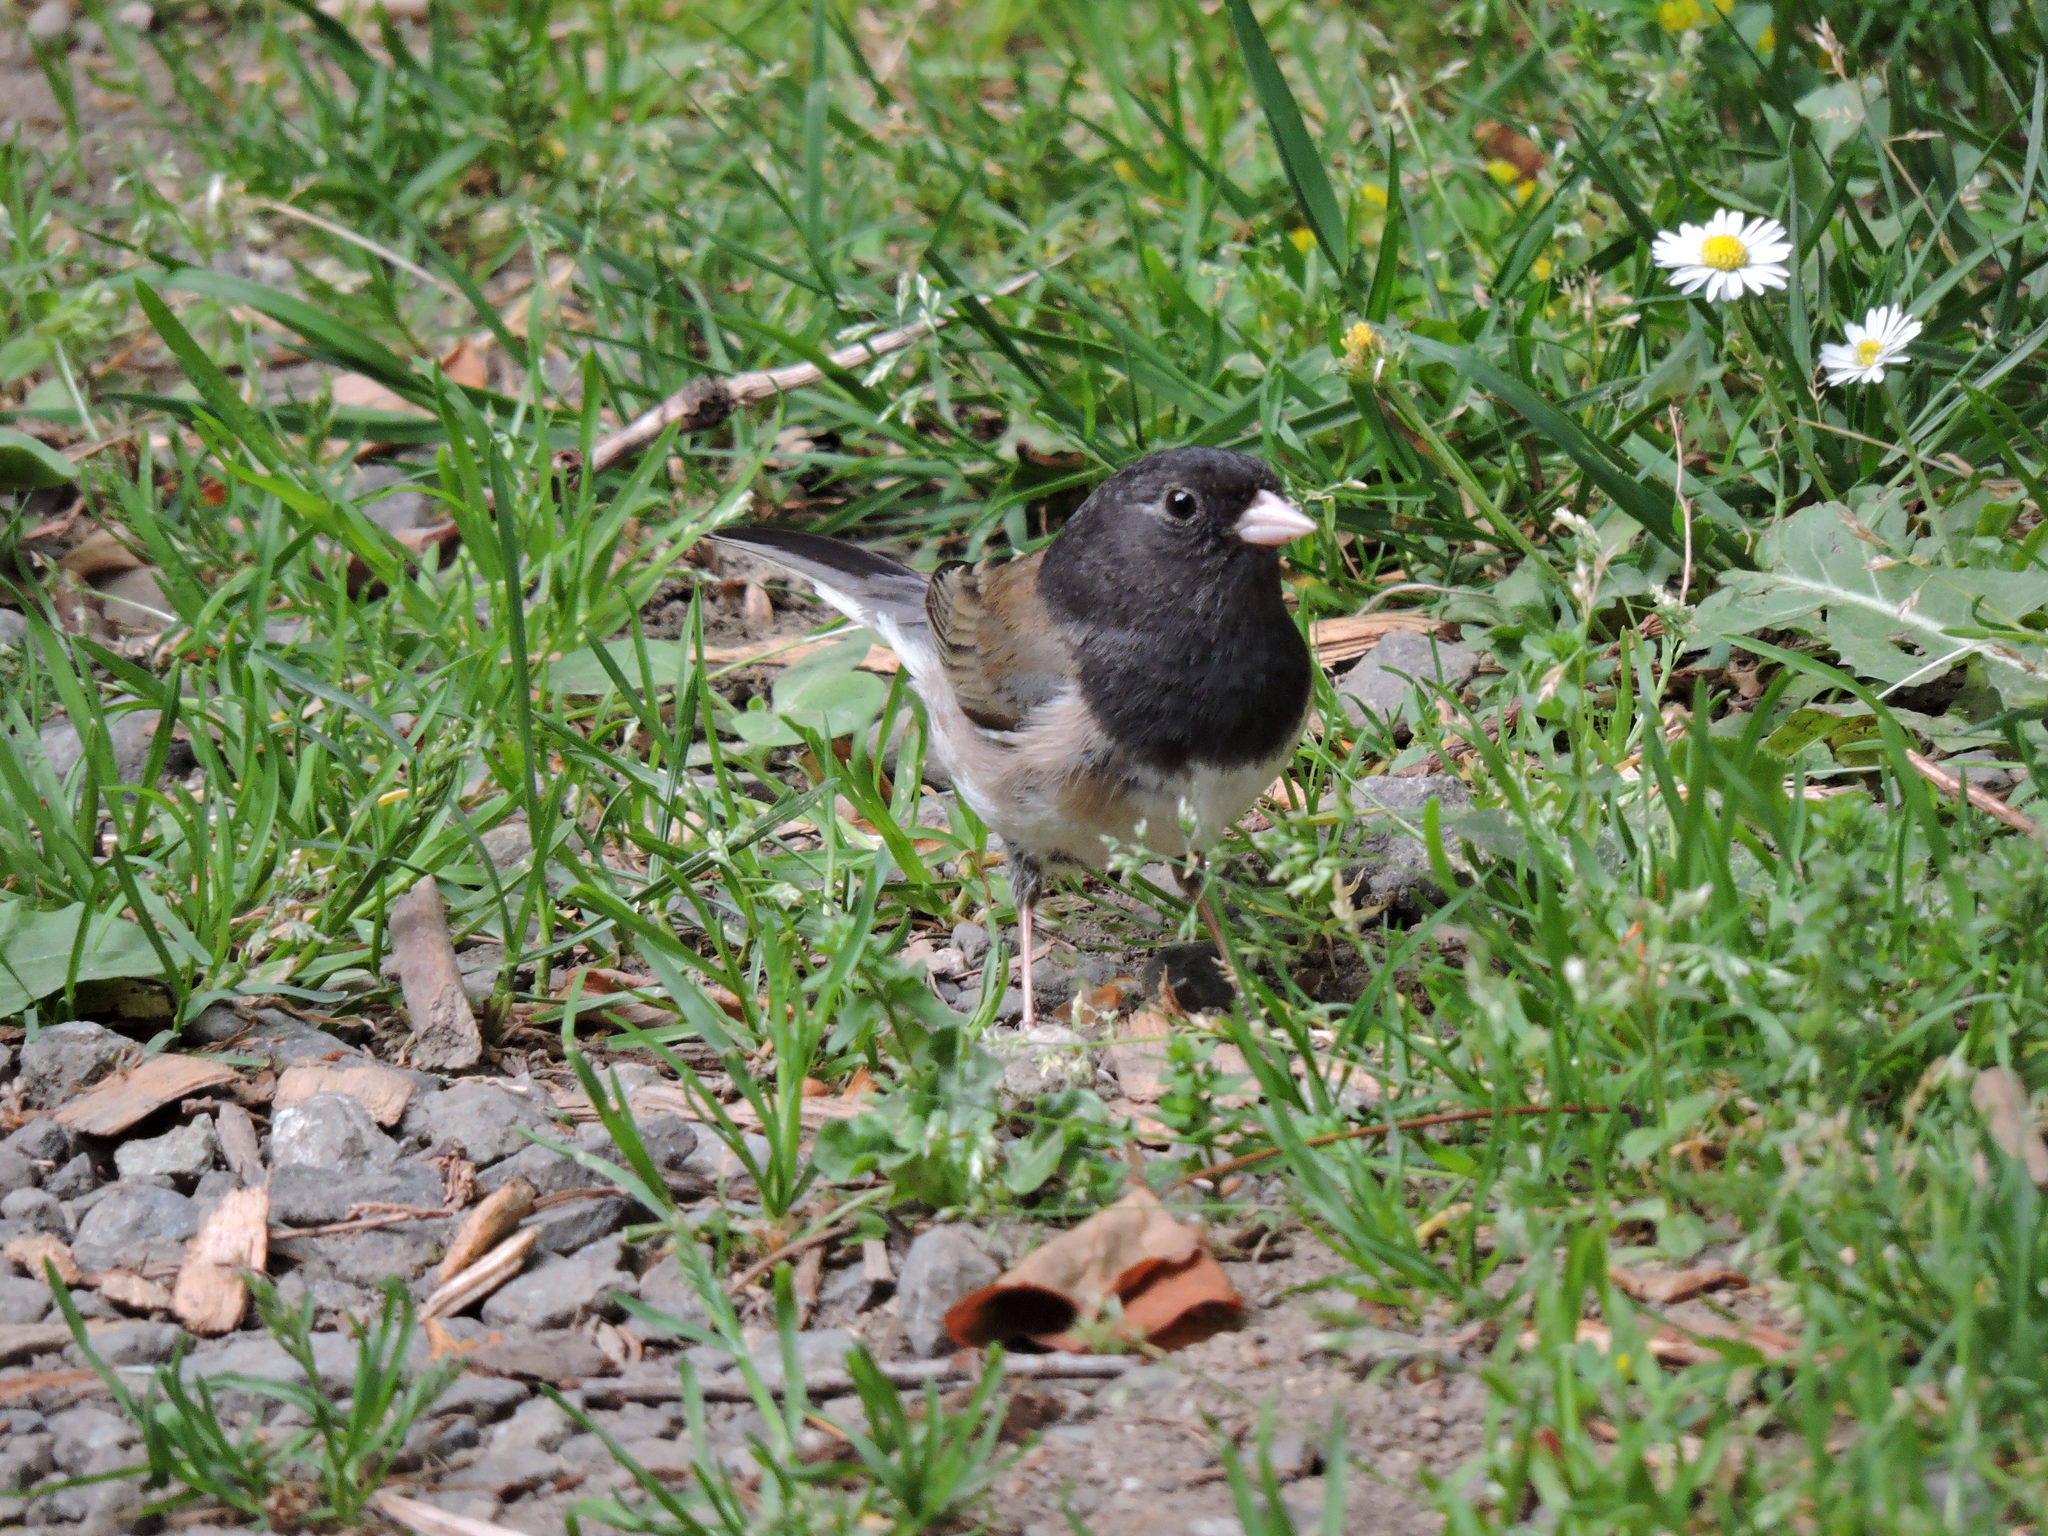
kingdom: Animalia
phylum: Chordata
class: Aves
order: Passeriformes
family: Passerellidae
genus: Junco
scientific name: Junco hyemalis
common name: Dark-eyed junco
